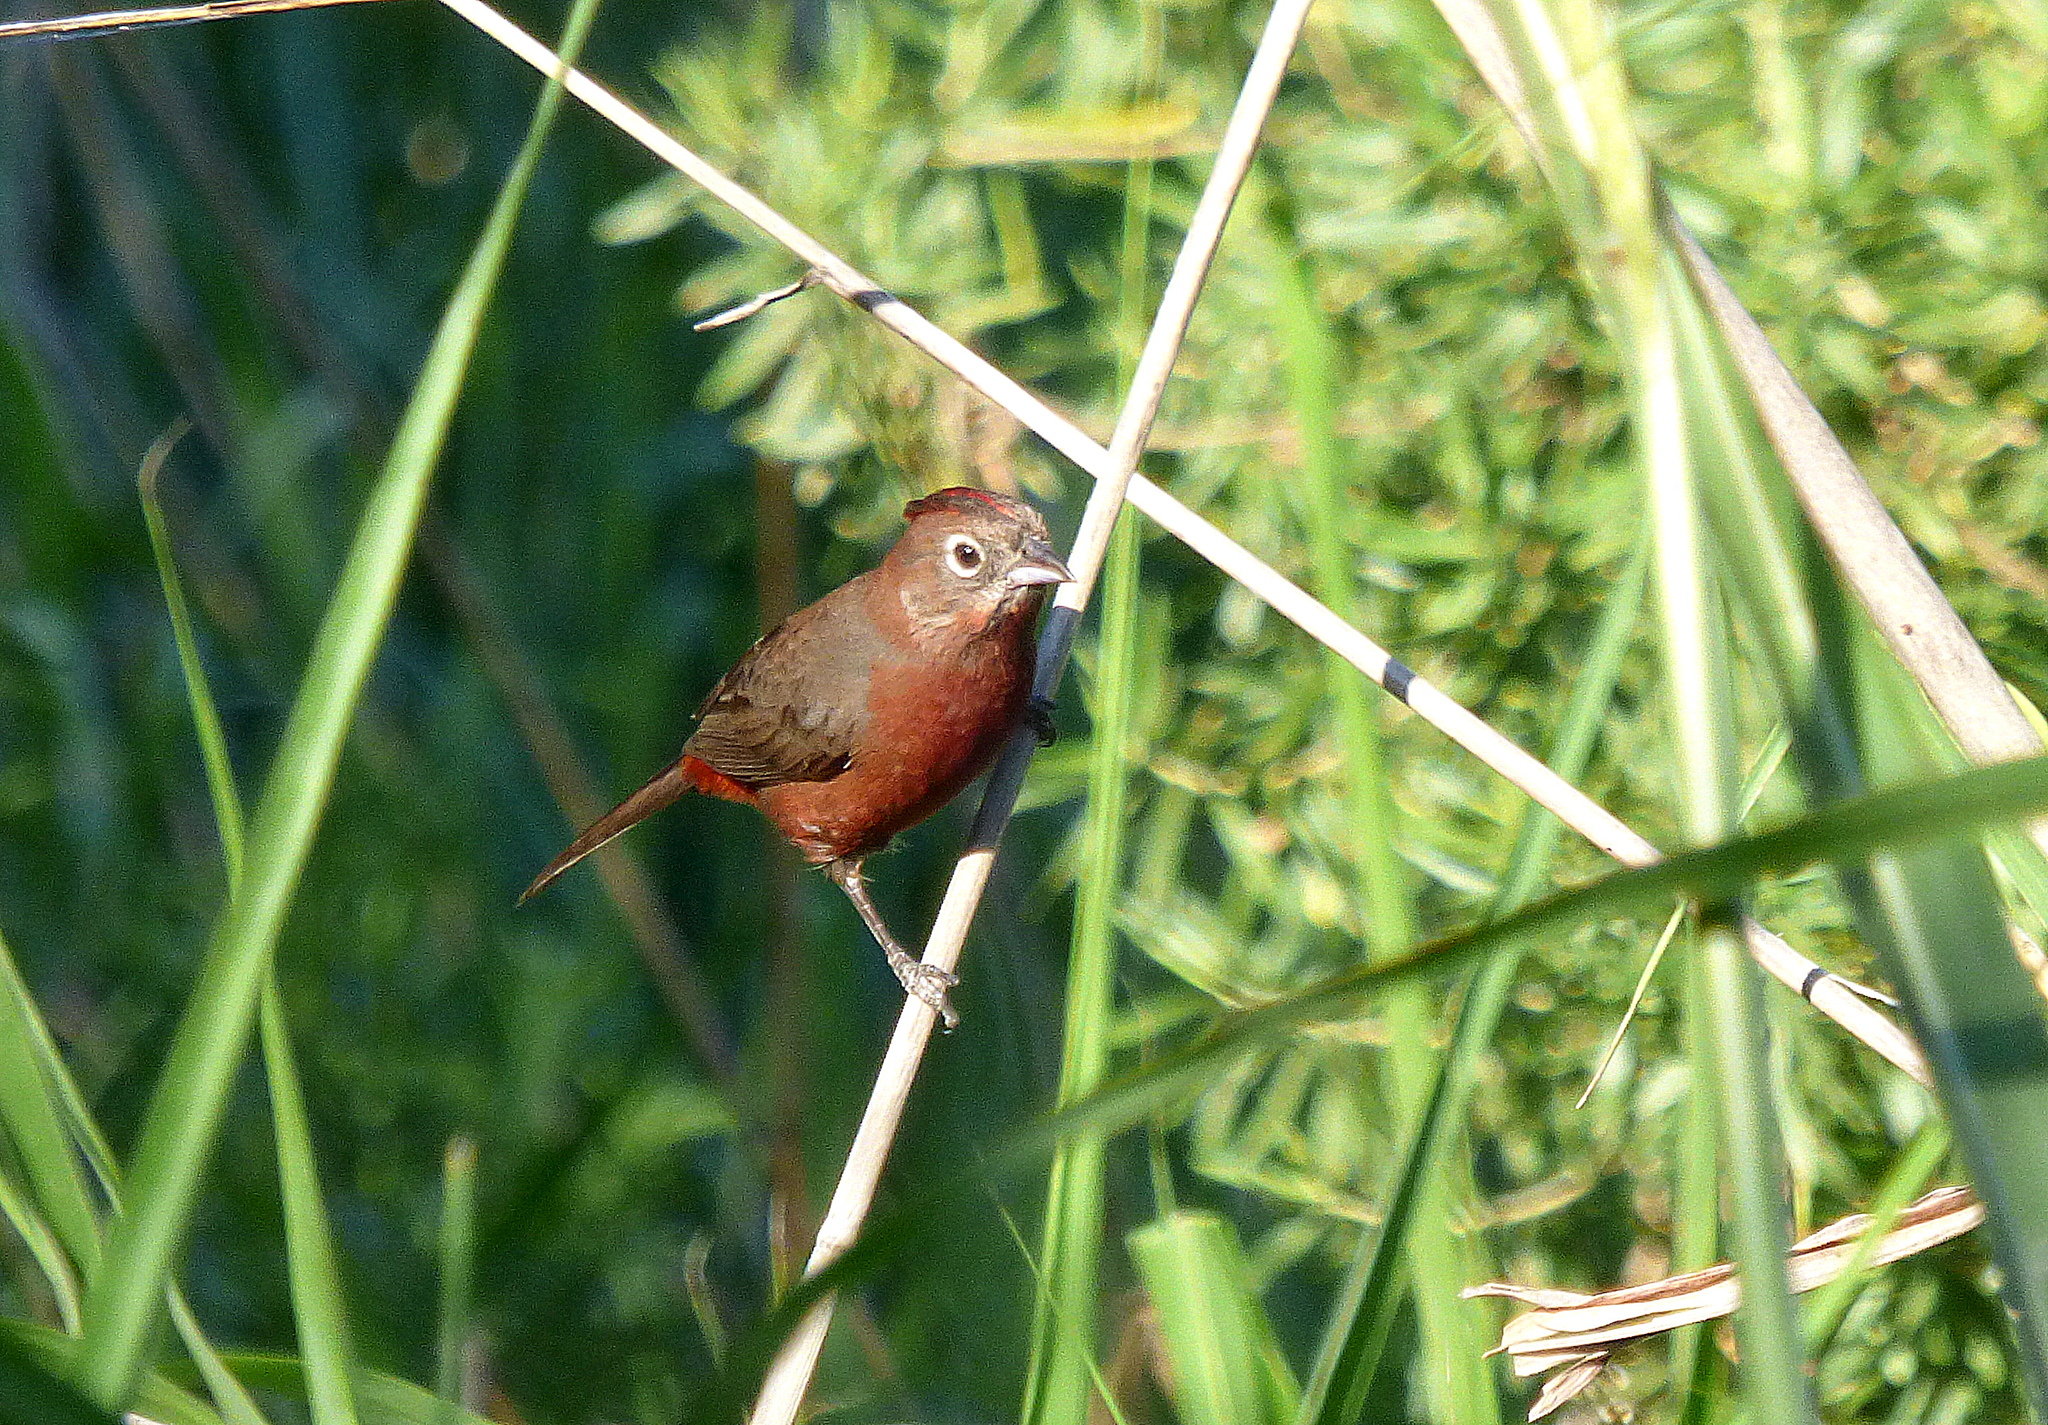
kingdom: Animalia
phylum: Chordata
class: Aves
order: Passeriformes
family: Thraupidae
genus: Coryphospingus
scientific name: Coryphospingus cucullatus
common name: Red pileated finch
